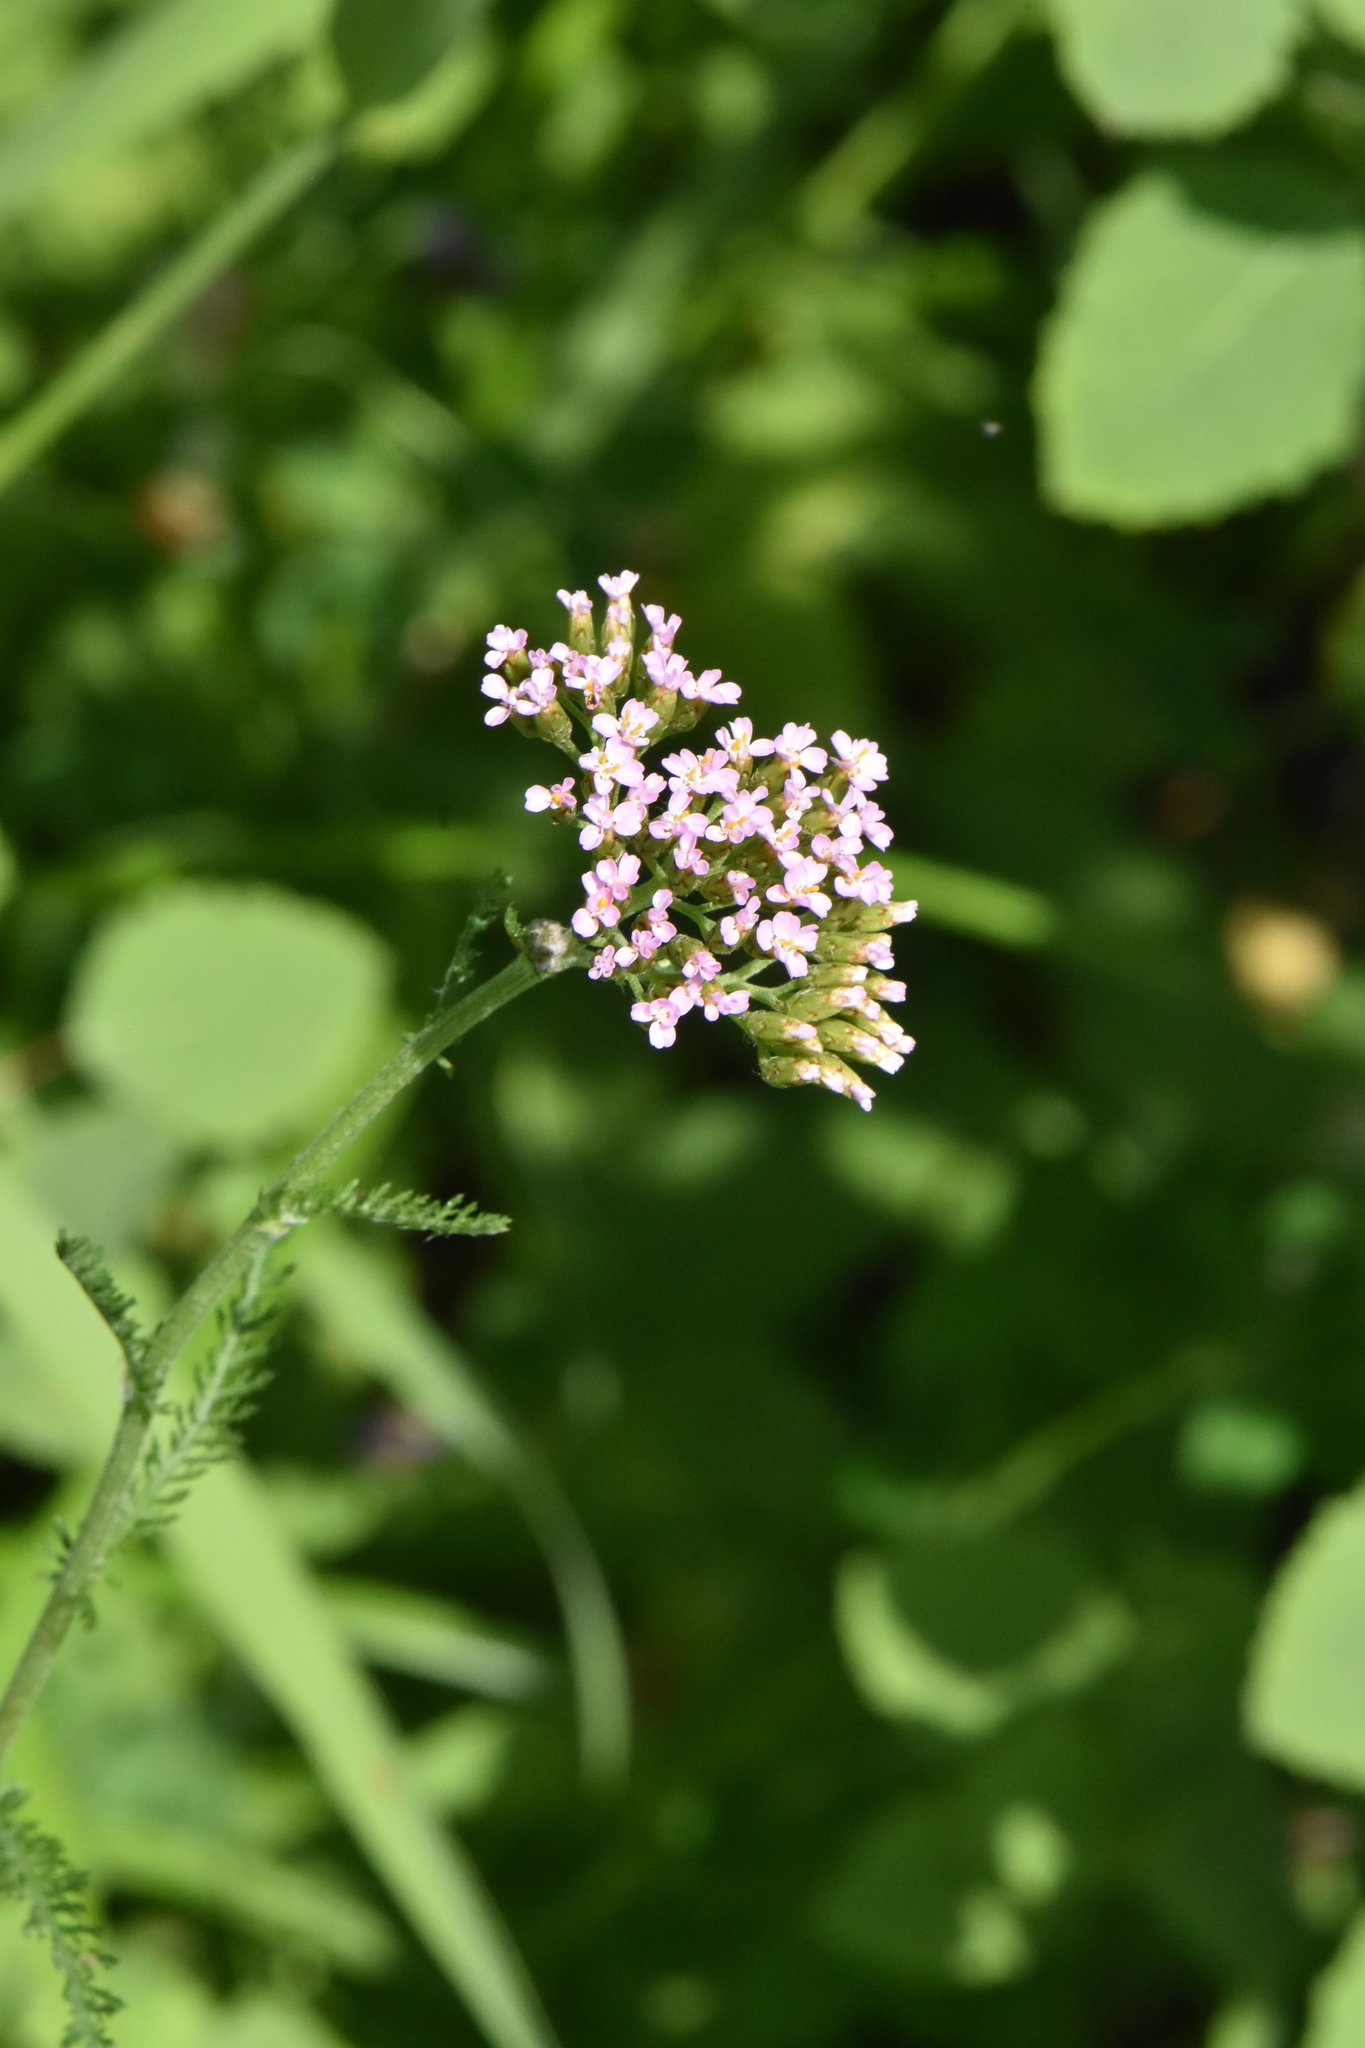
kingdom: Plantae
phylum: Tracheophyta
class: Magnoliopsida
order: Asterales
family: Asteraceae
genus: Achillea
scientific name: Achillea asiatica
